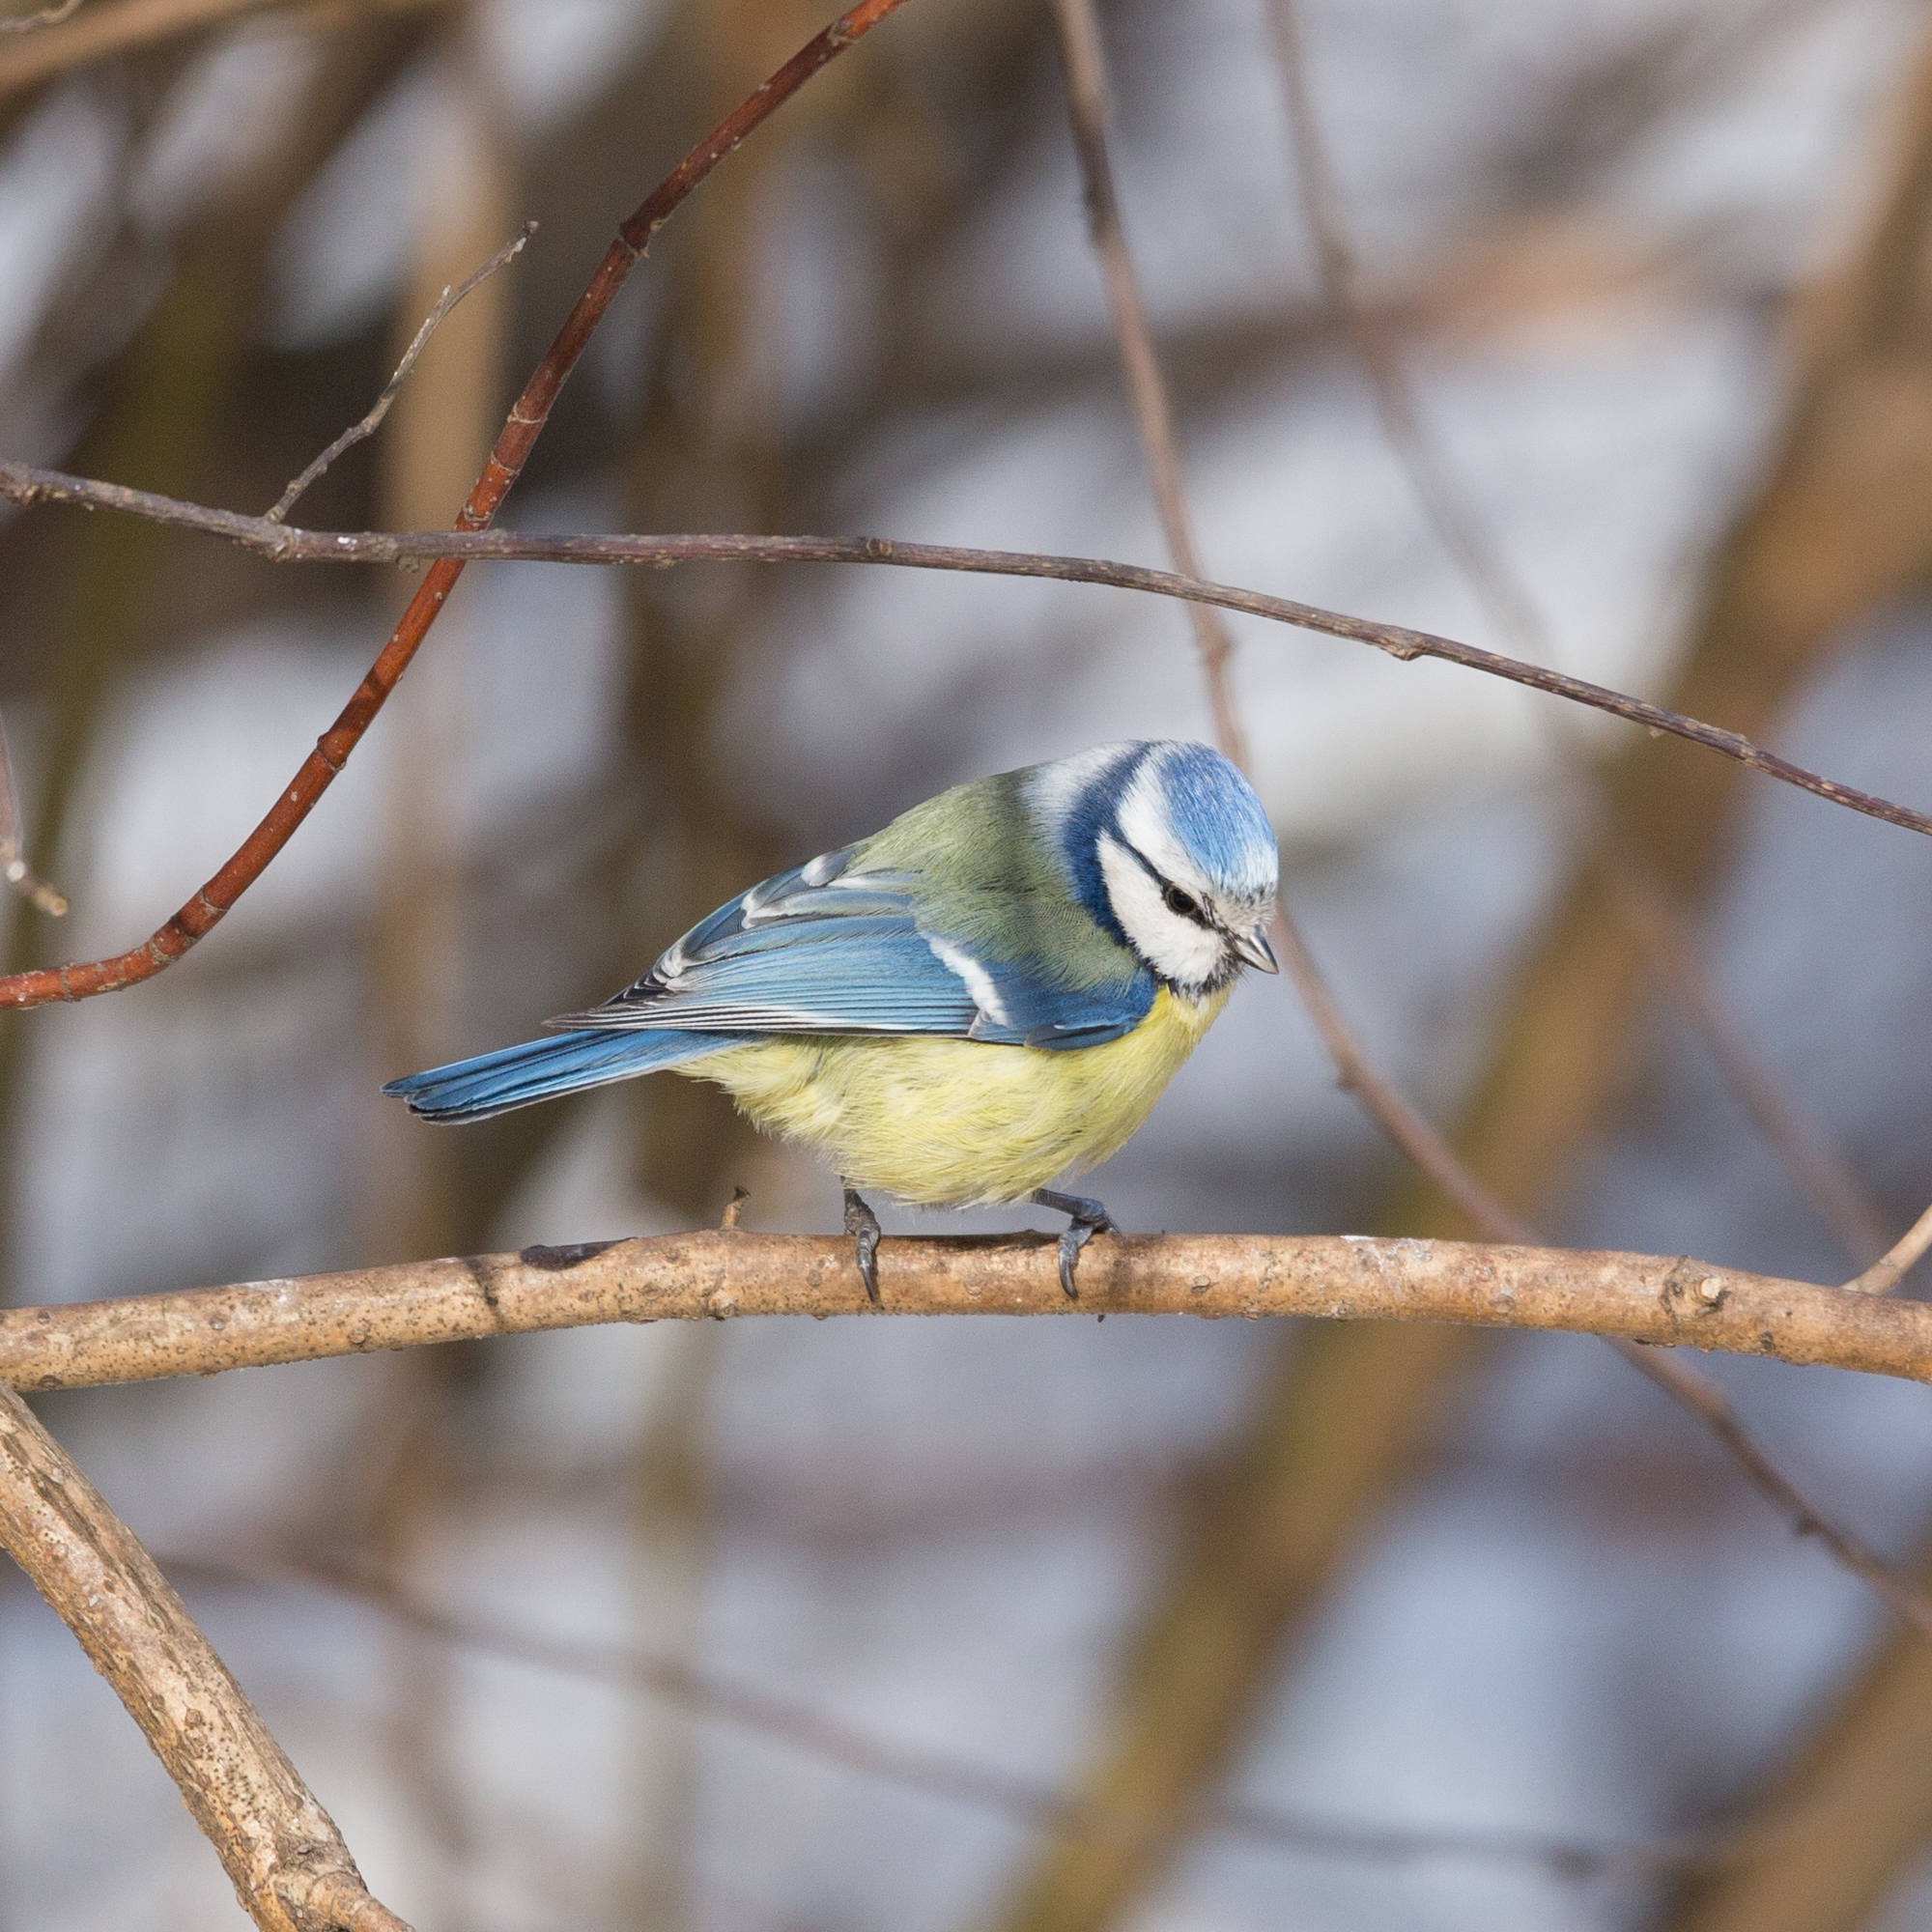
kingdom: Animalia
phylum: Chordata
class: Aves
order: Passeriformes
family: Paridae
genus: Cyanistes
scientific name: Cyanistes caeruleus
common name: Eurasian blue tit
